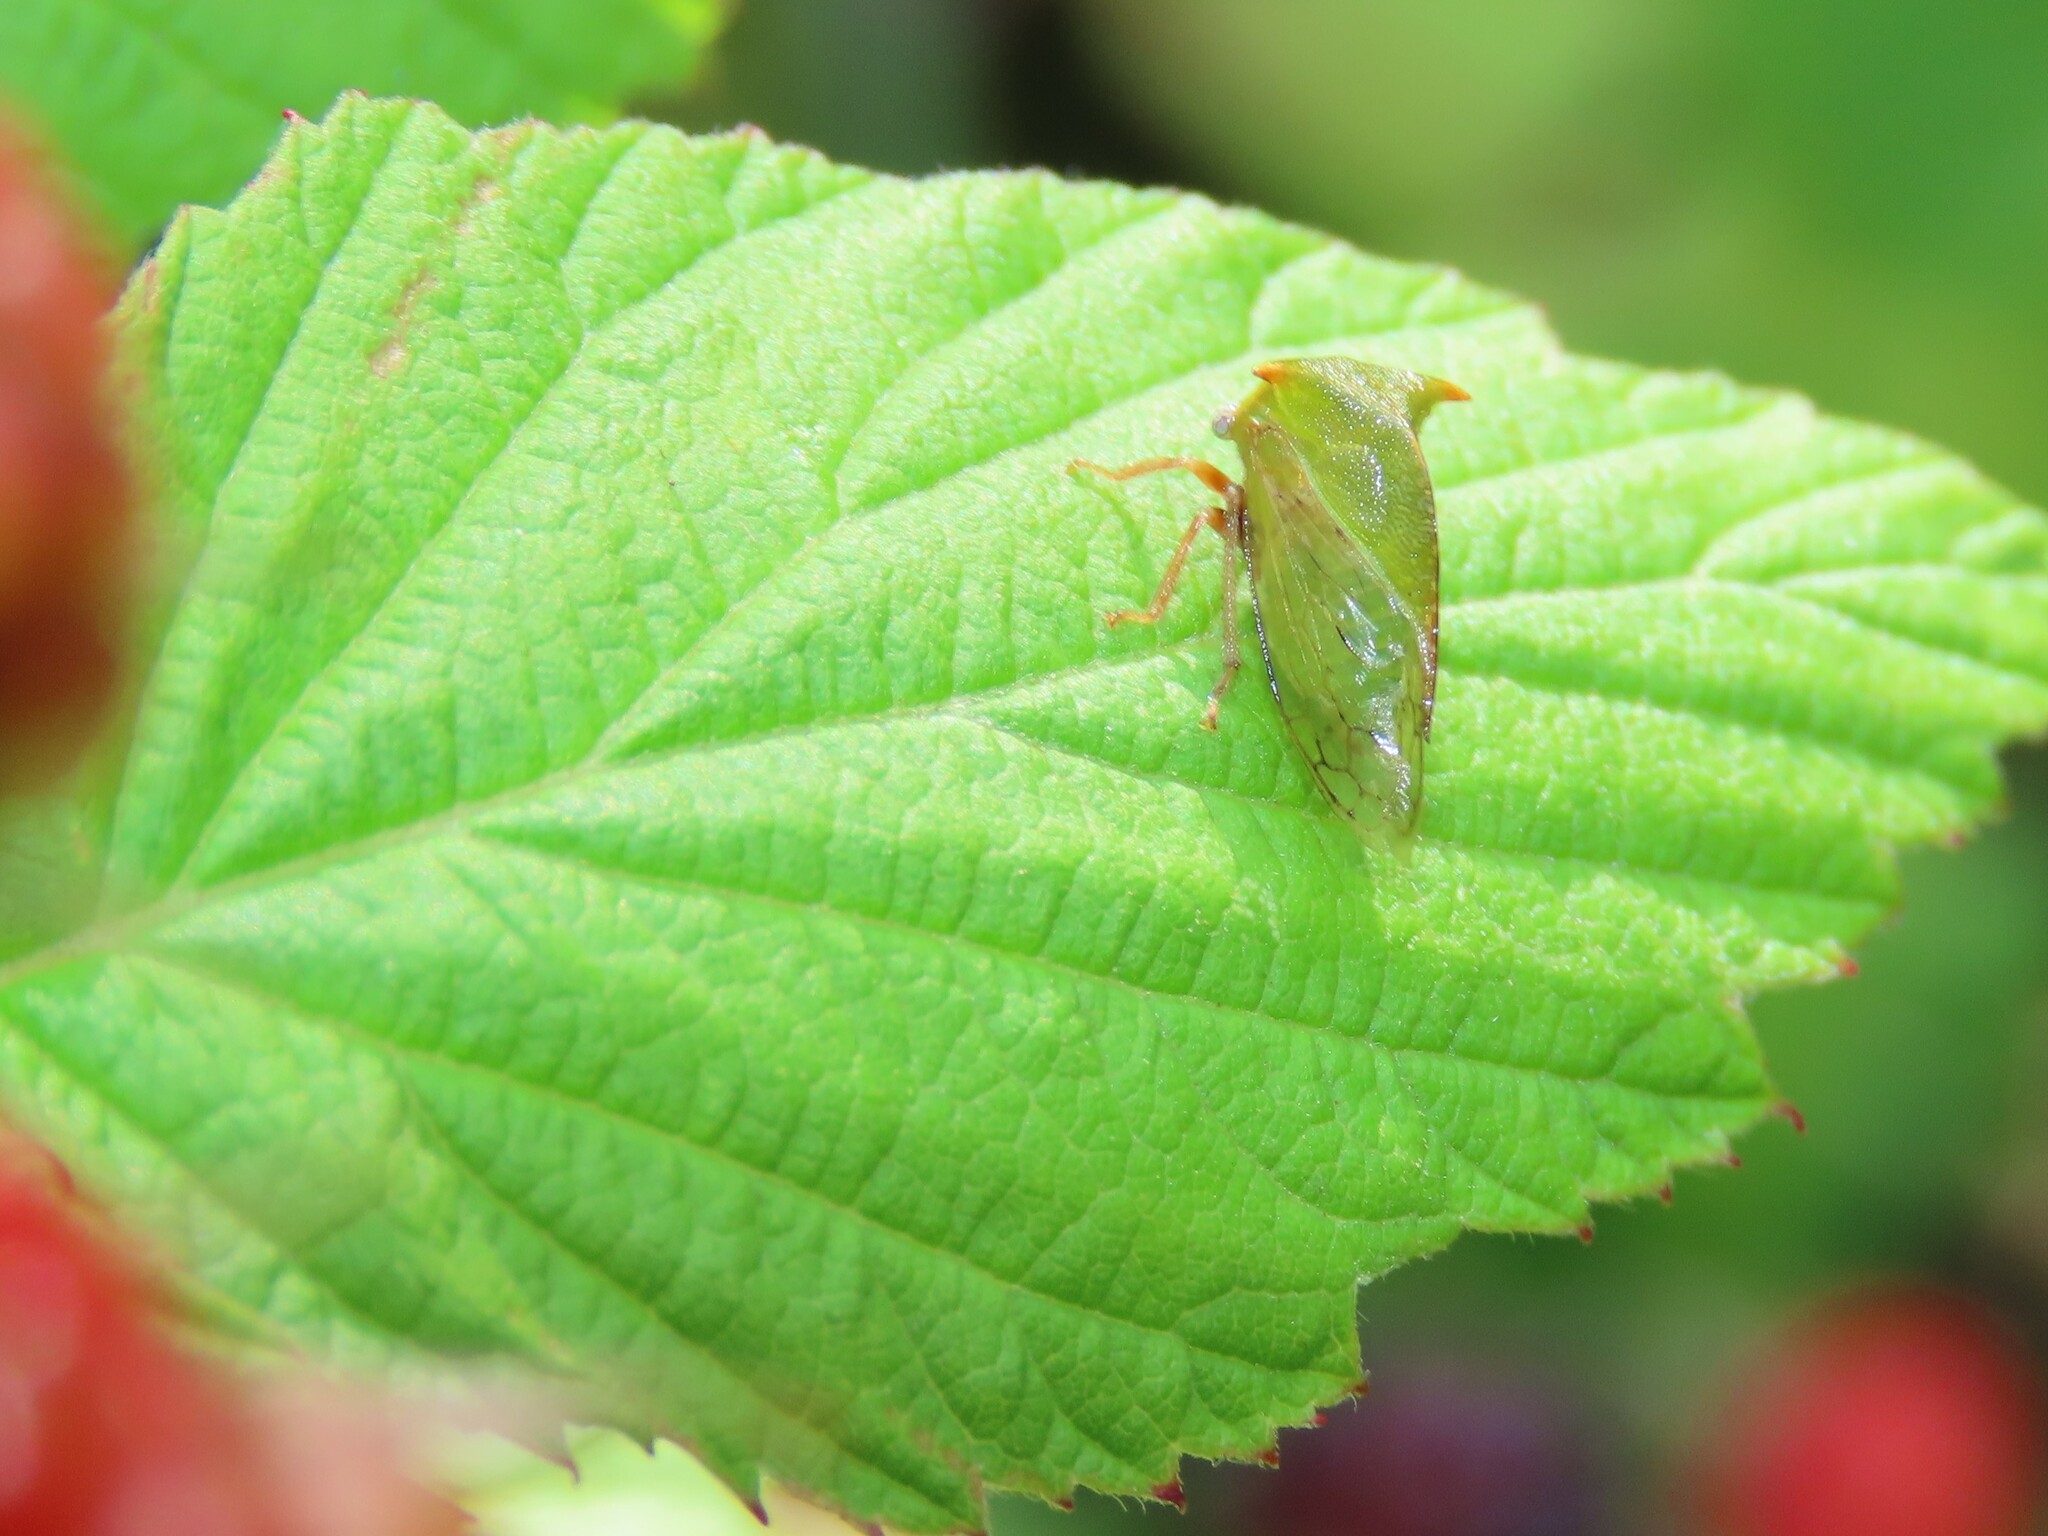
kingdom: Animalia
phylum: Arthropoda
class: Insecta
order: Hemiptera
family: Membracidae
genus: Stictocephala
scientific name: Stictocephala brevitylus
